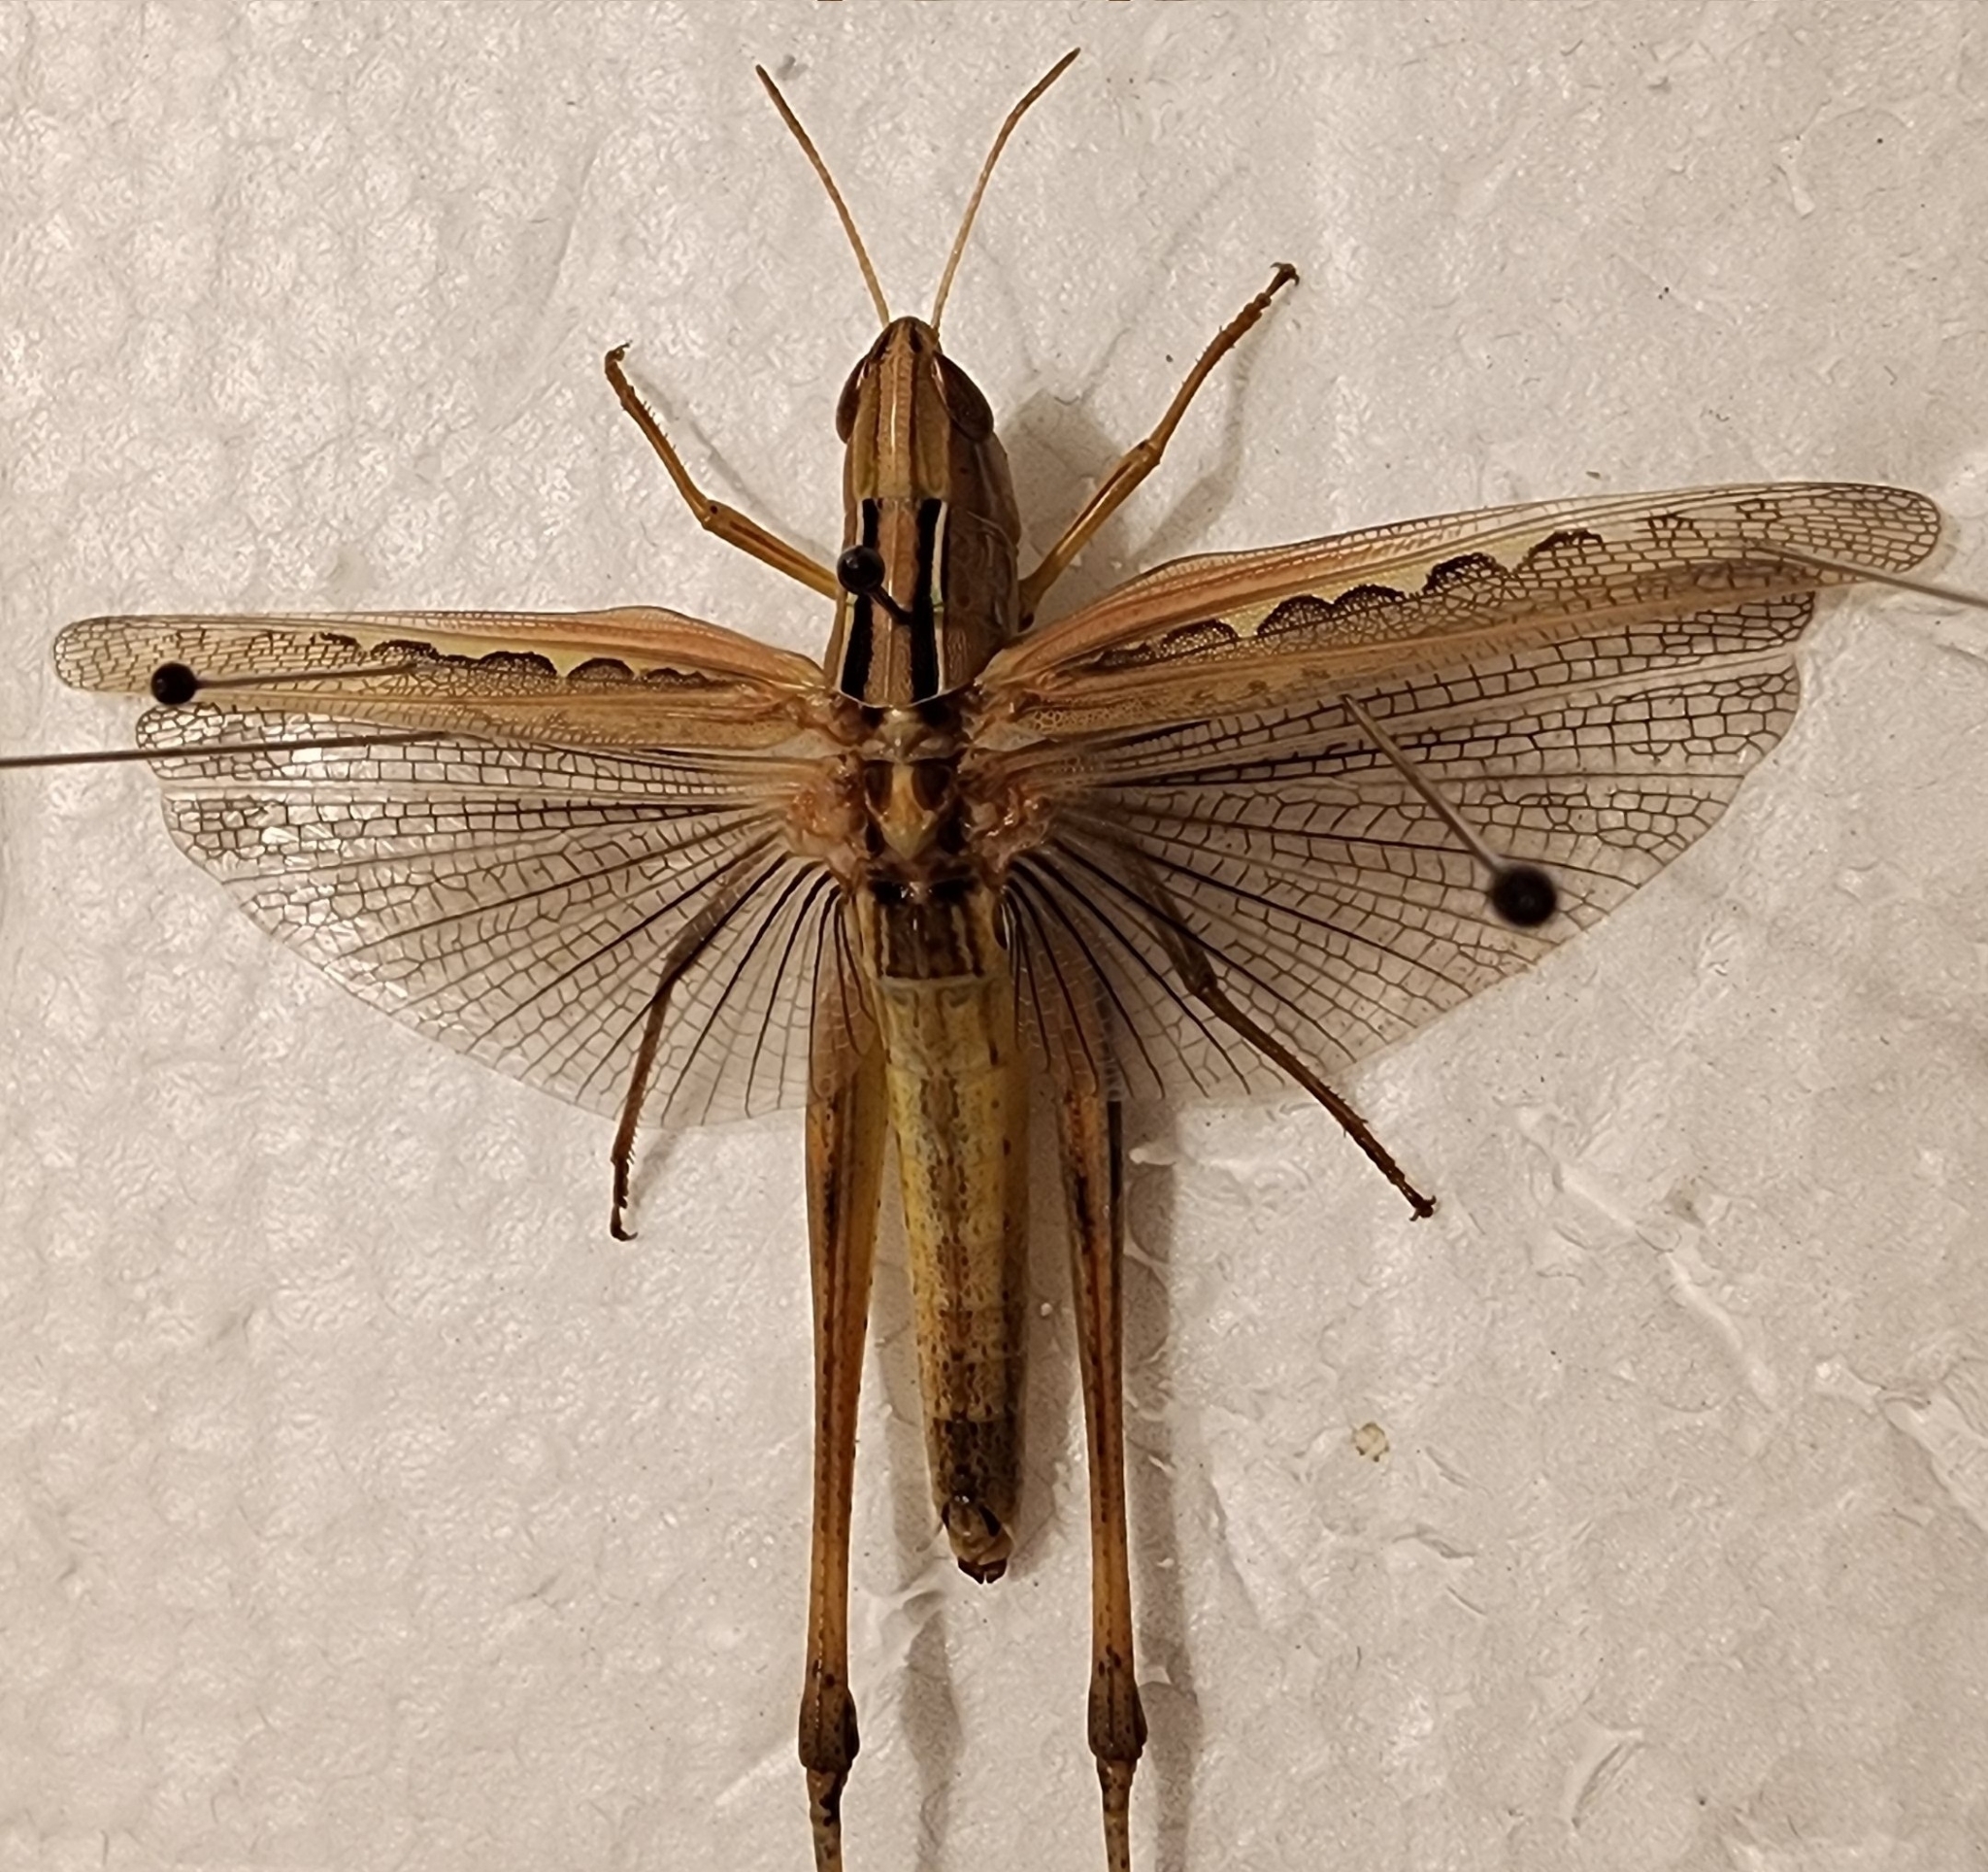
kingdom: Animalia
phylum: Arthropoda
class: Insecta
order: Orthoptera
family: Acrididae
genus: Syrbula
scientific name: Syrbula admirabilis
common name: Handsome grasshopper
